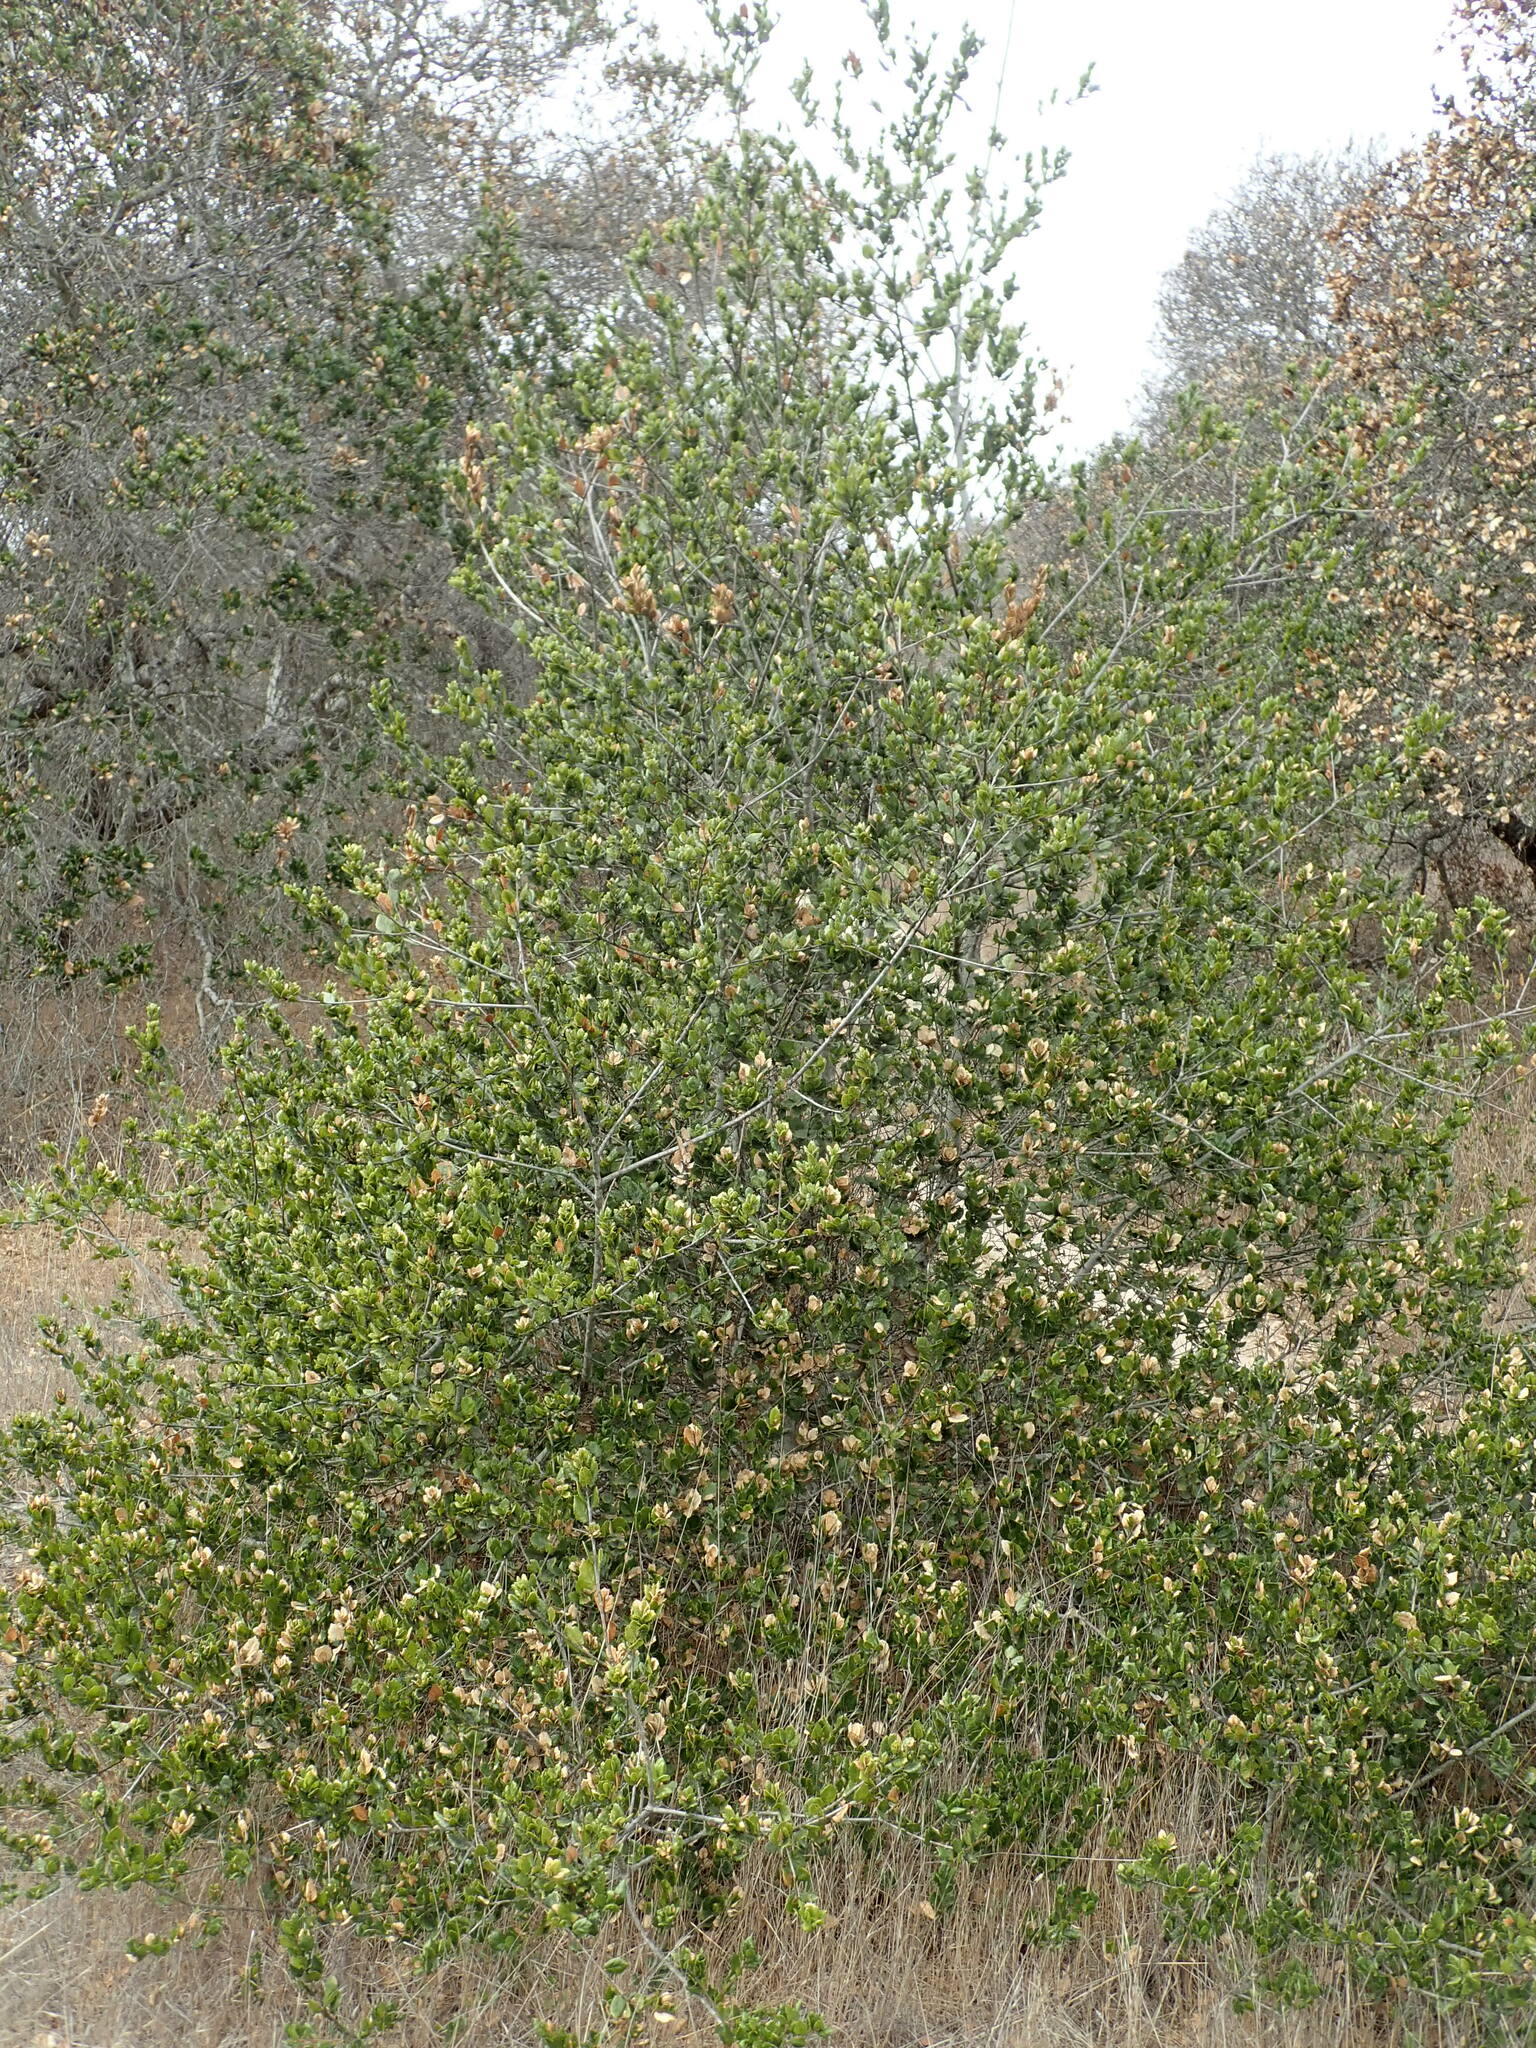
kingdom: Plantae
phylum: Tracheophyta
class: Magnoliopsida
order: Fagales
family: Fagaceae
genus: Quercus
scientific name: Quercus agrifolia
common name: California live oak
